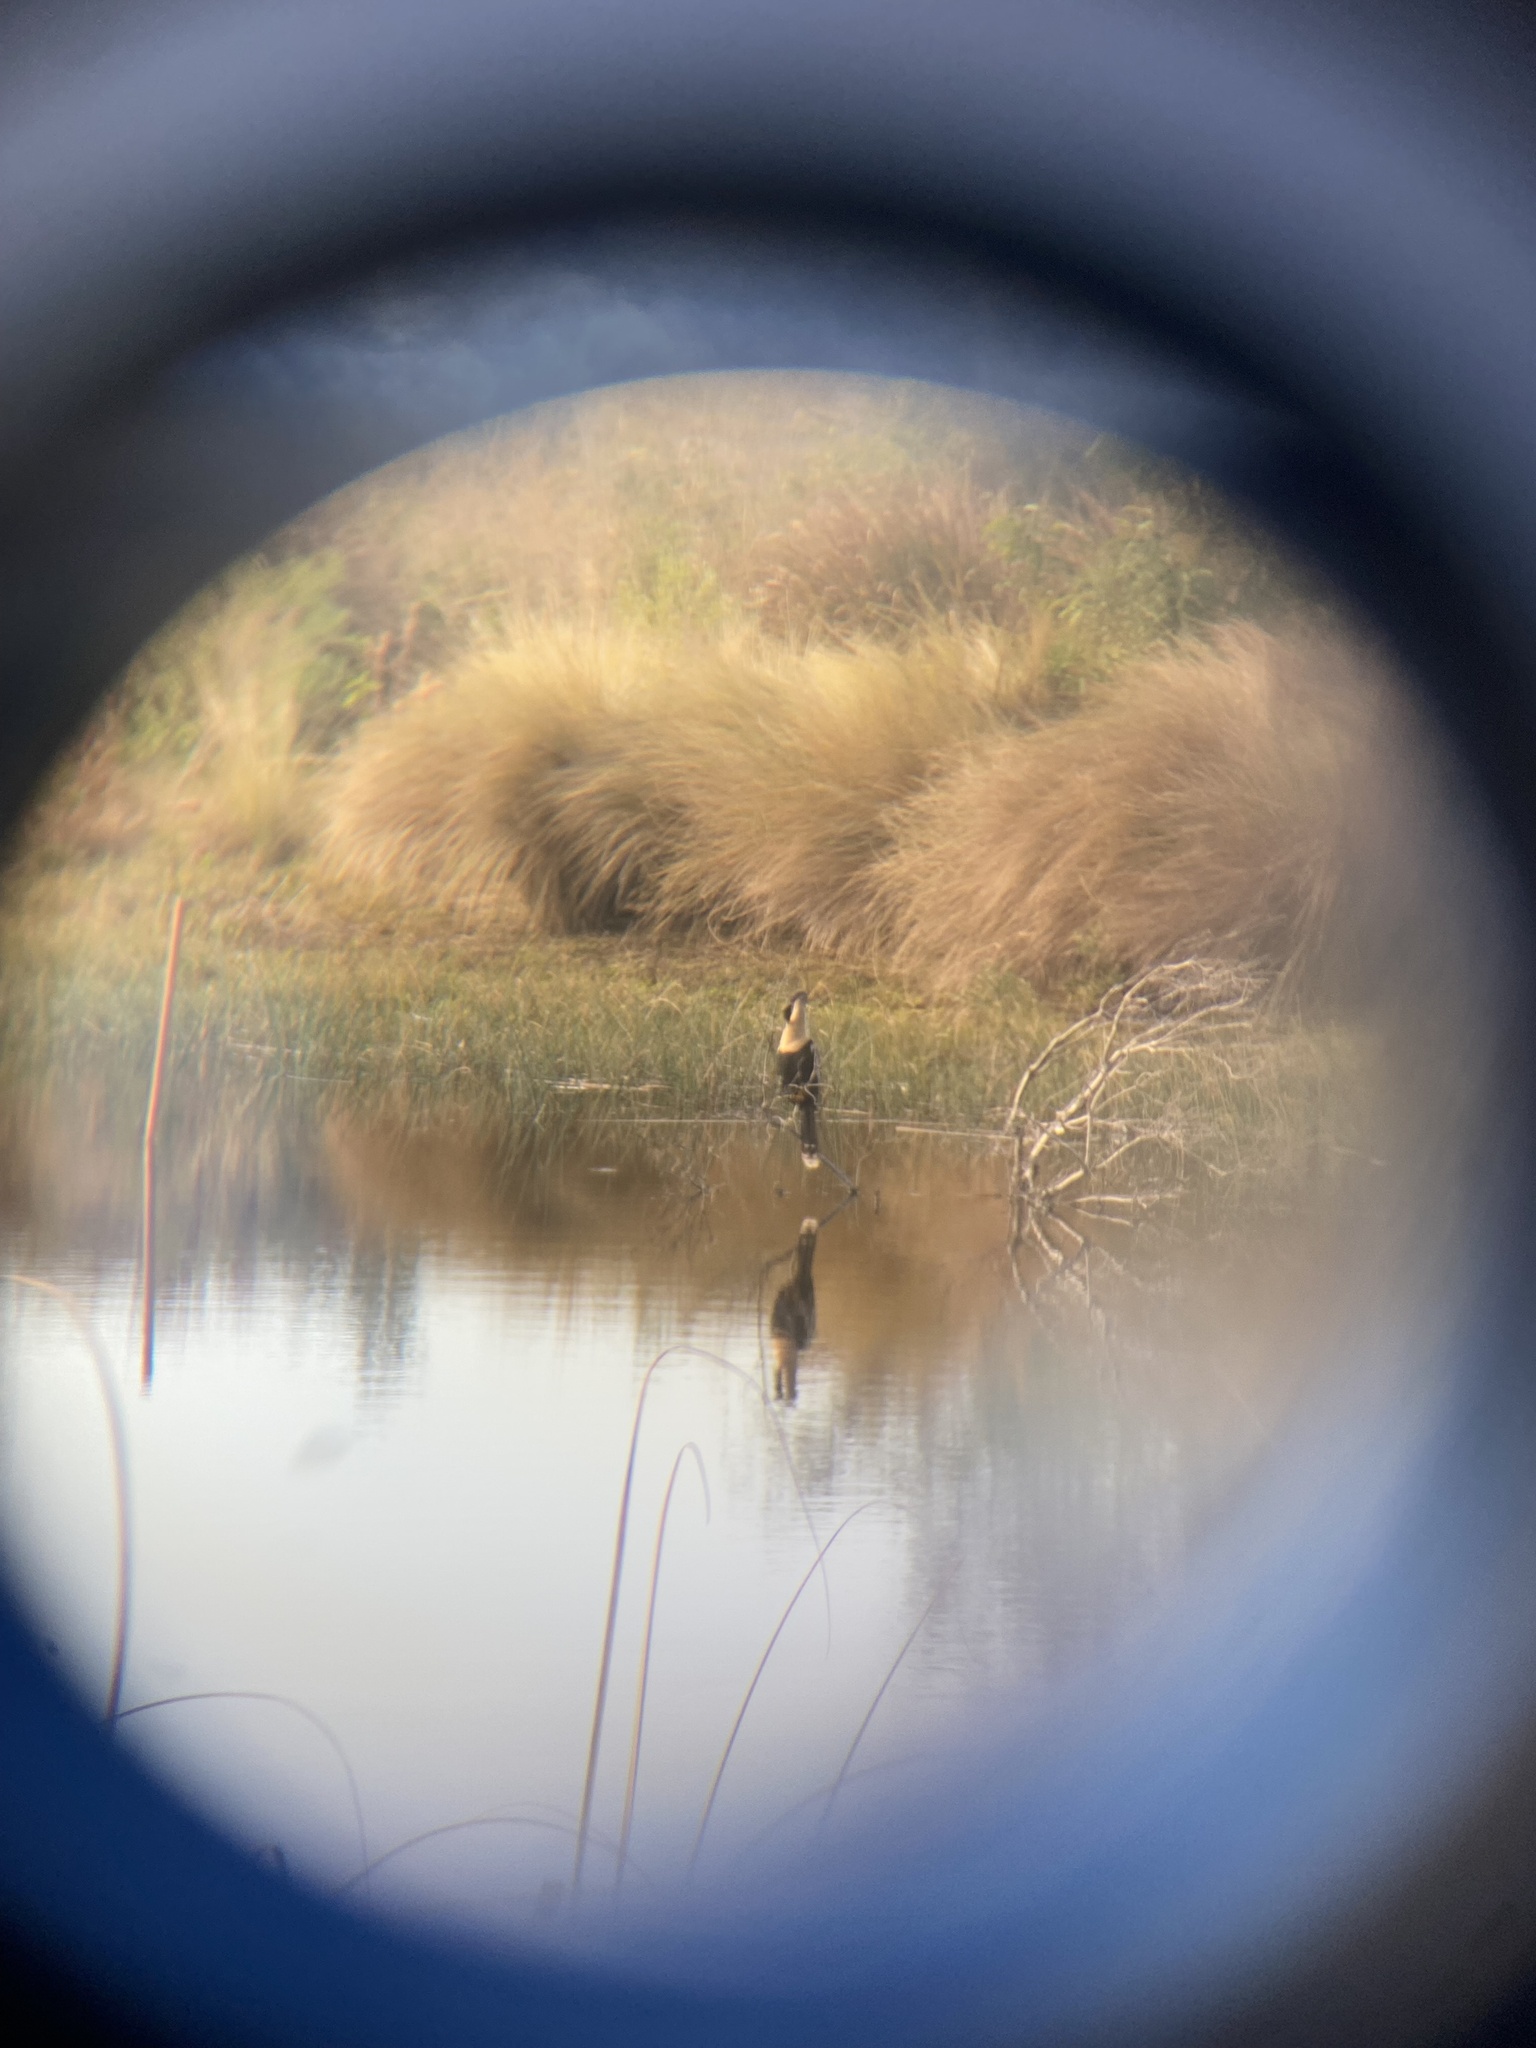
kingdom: Animalia
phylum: Chordata
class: Aves
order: Suliformes
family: Anhingidae
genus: Anhinga
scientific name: Anhinga anhinga
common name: Anhinga
